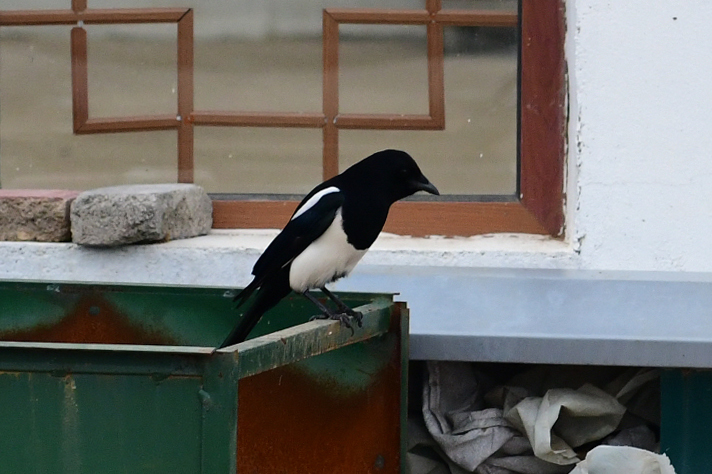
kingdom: Animalia
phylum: Chordata
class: Aves
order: Passeriformes
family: Corvidae
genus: Pica
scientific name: Pica serica
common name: Oriental magpie
